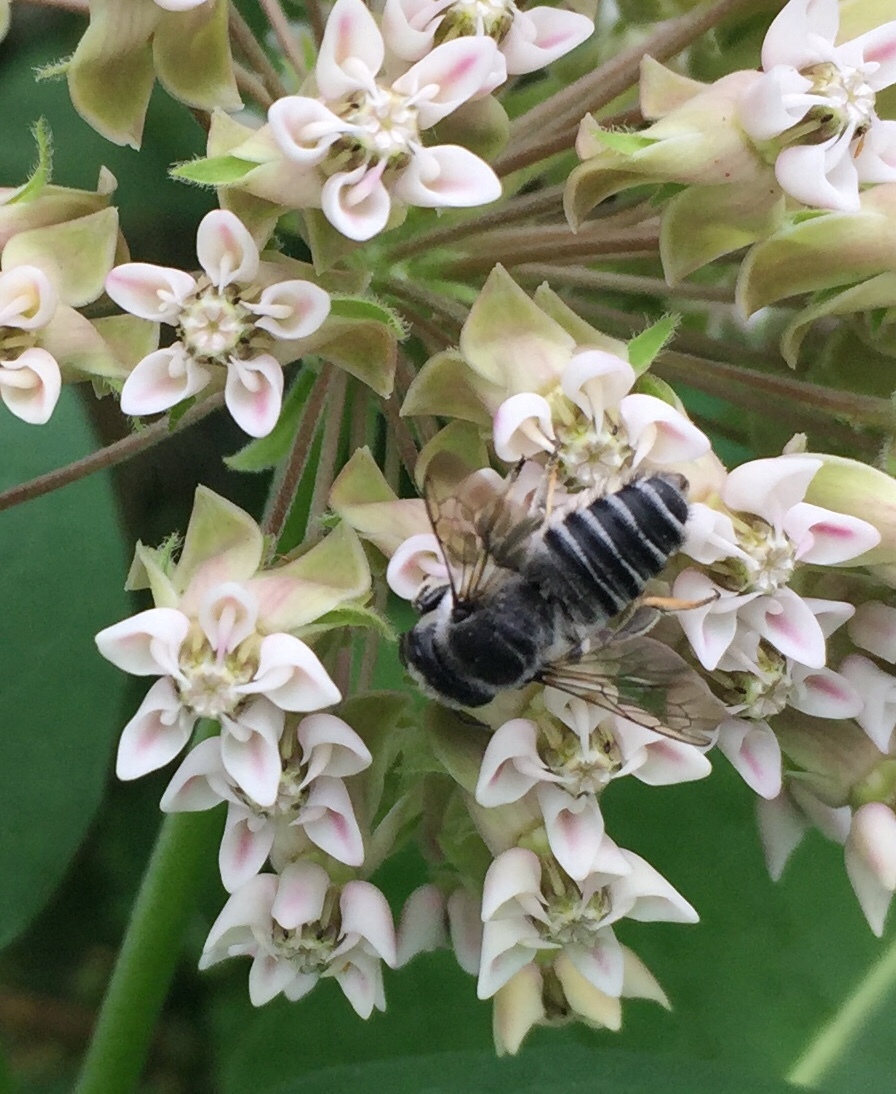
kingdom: Animalia
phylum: Arthropoda
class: Insecta
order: Hymenoptera
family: Megachilidae
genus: Megachile
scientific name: Megachile texana
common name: Texas leafcutter
